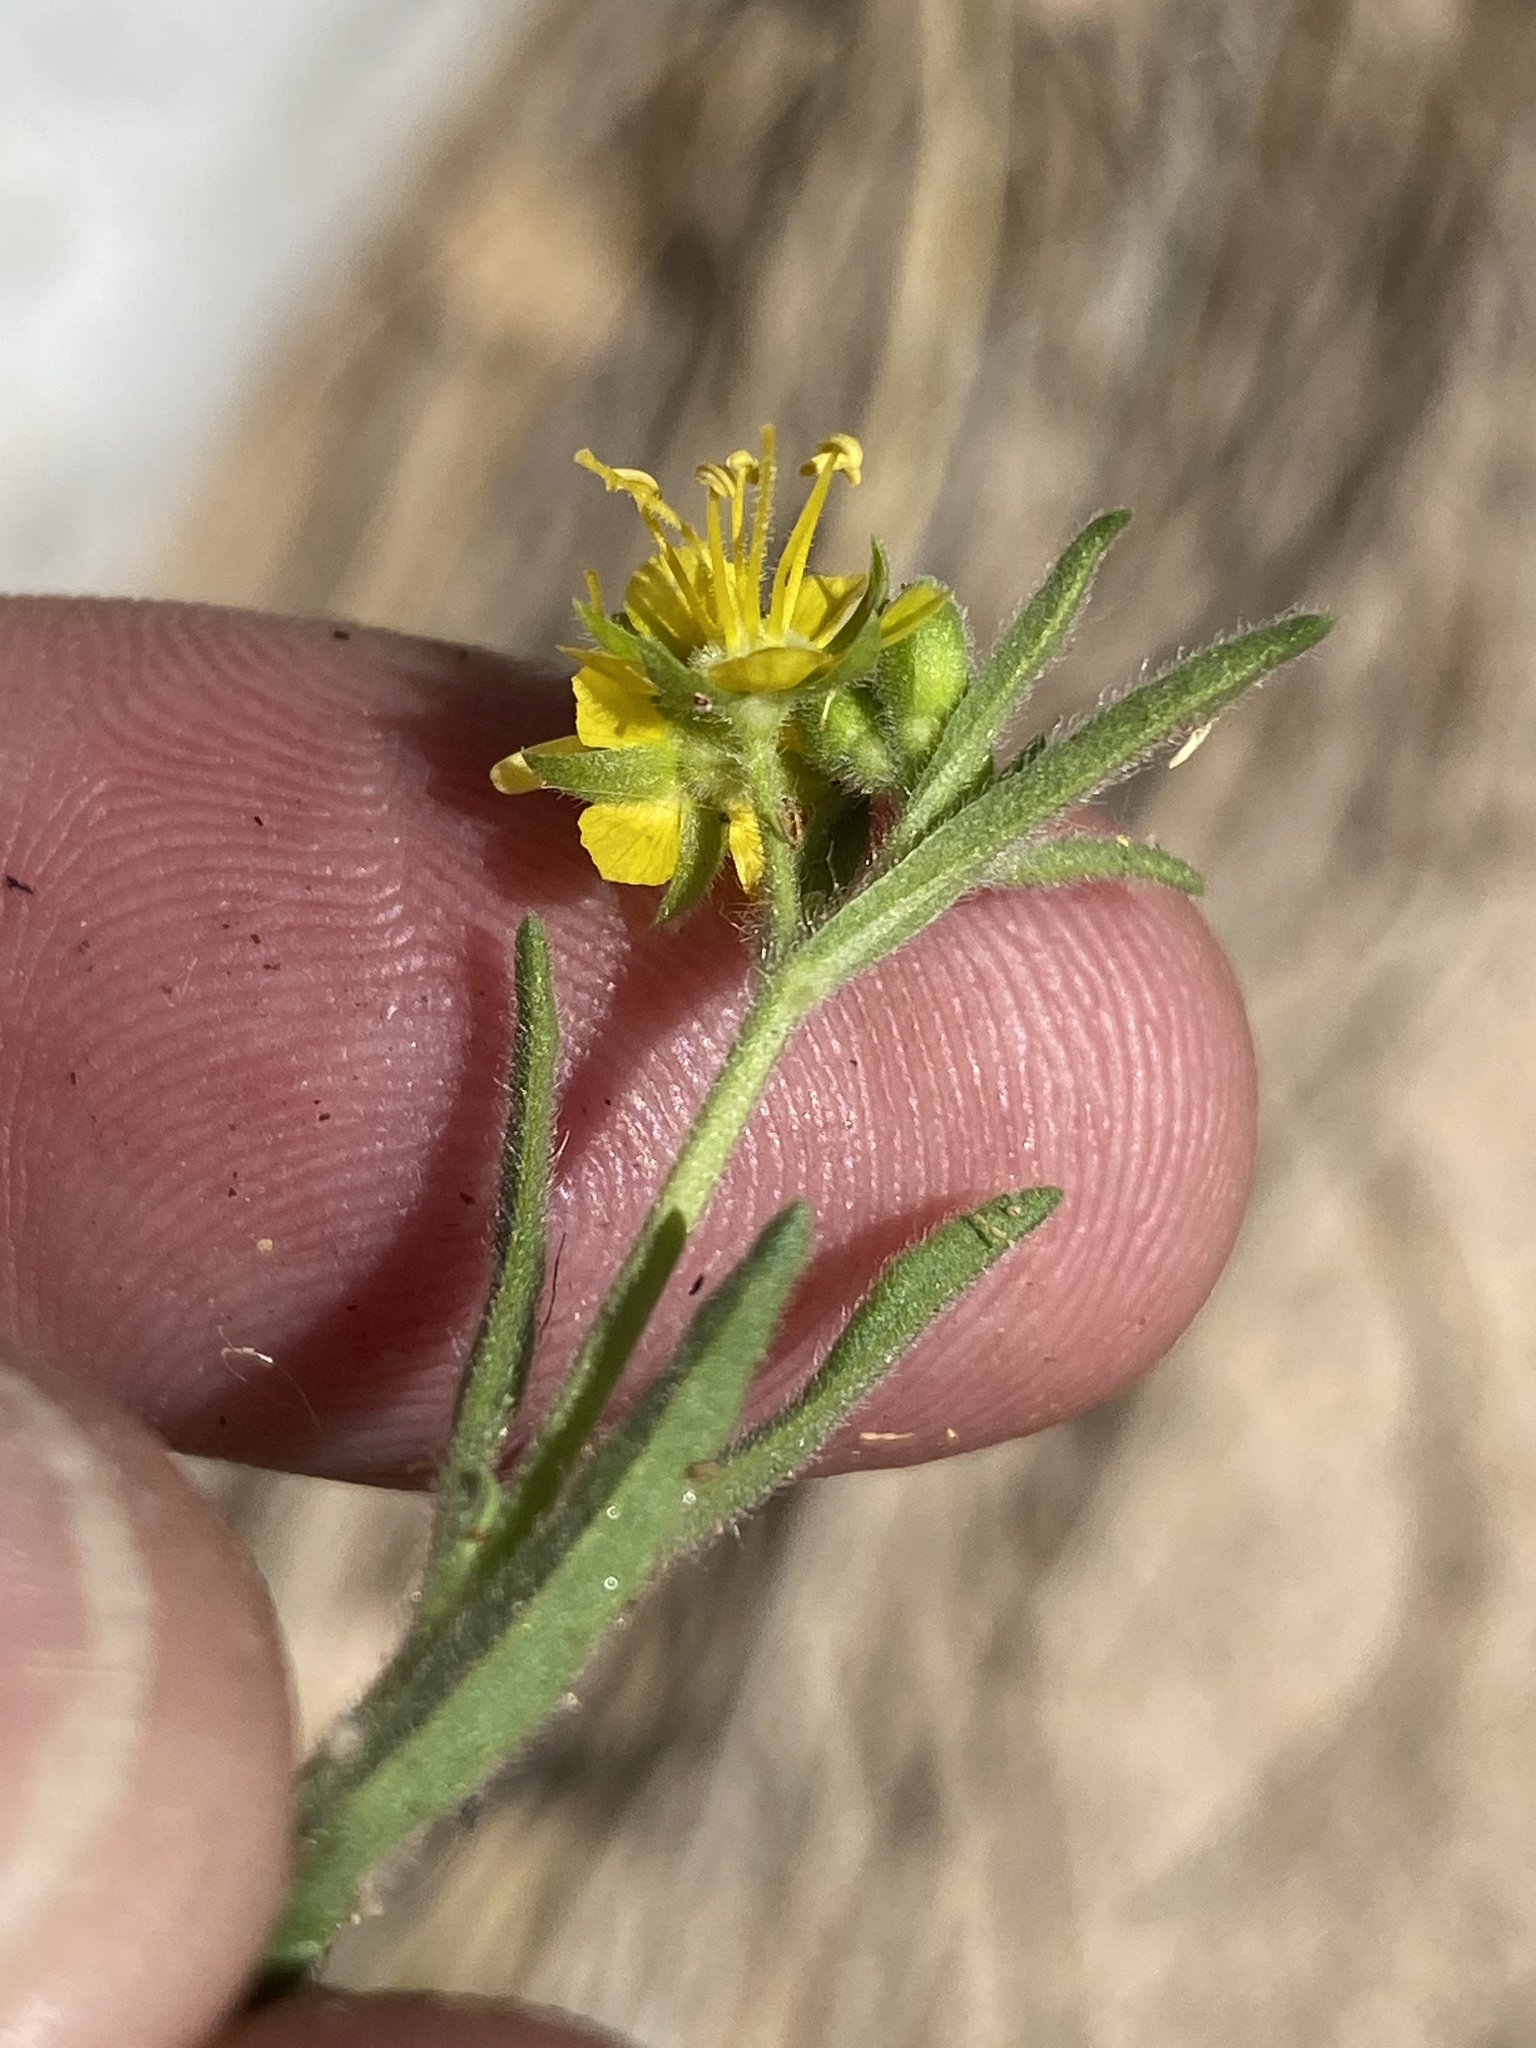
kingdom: Plantae
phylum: Tracheophyta
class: Magnoliopsida
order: Vahliales
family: Vahliaceae
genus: Vahlia
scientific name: Vahlia capensis
